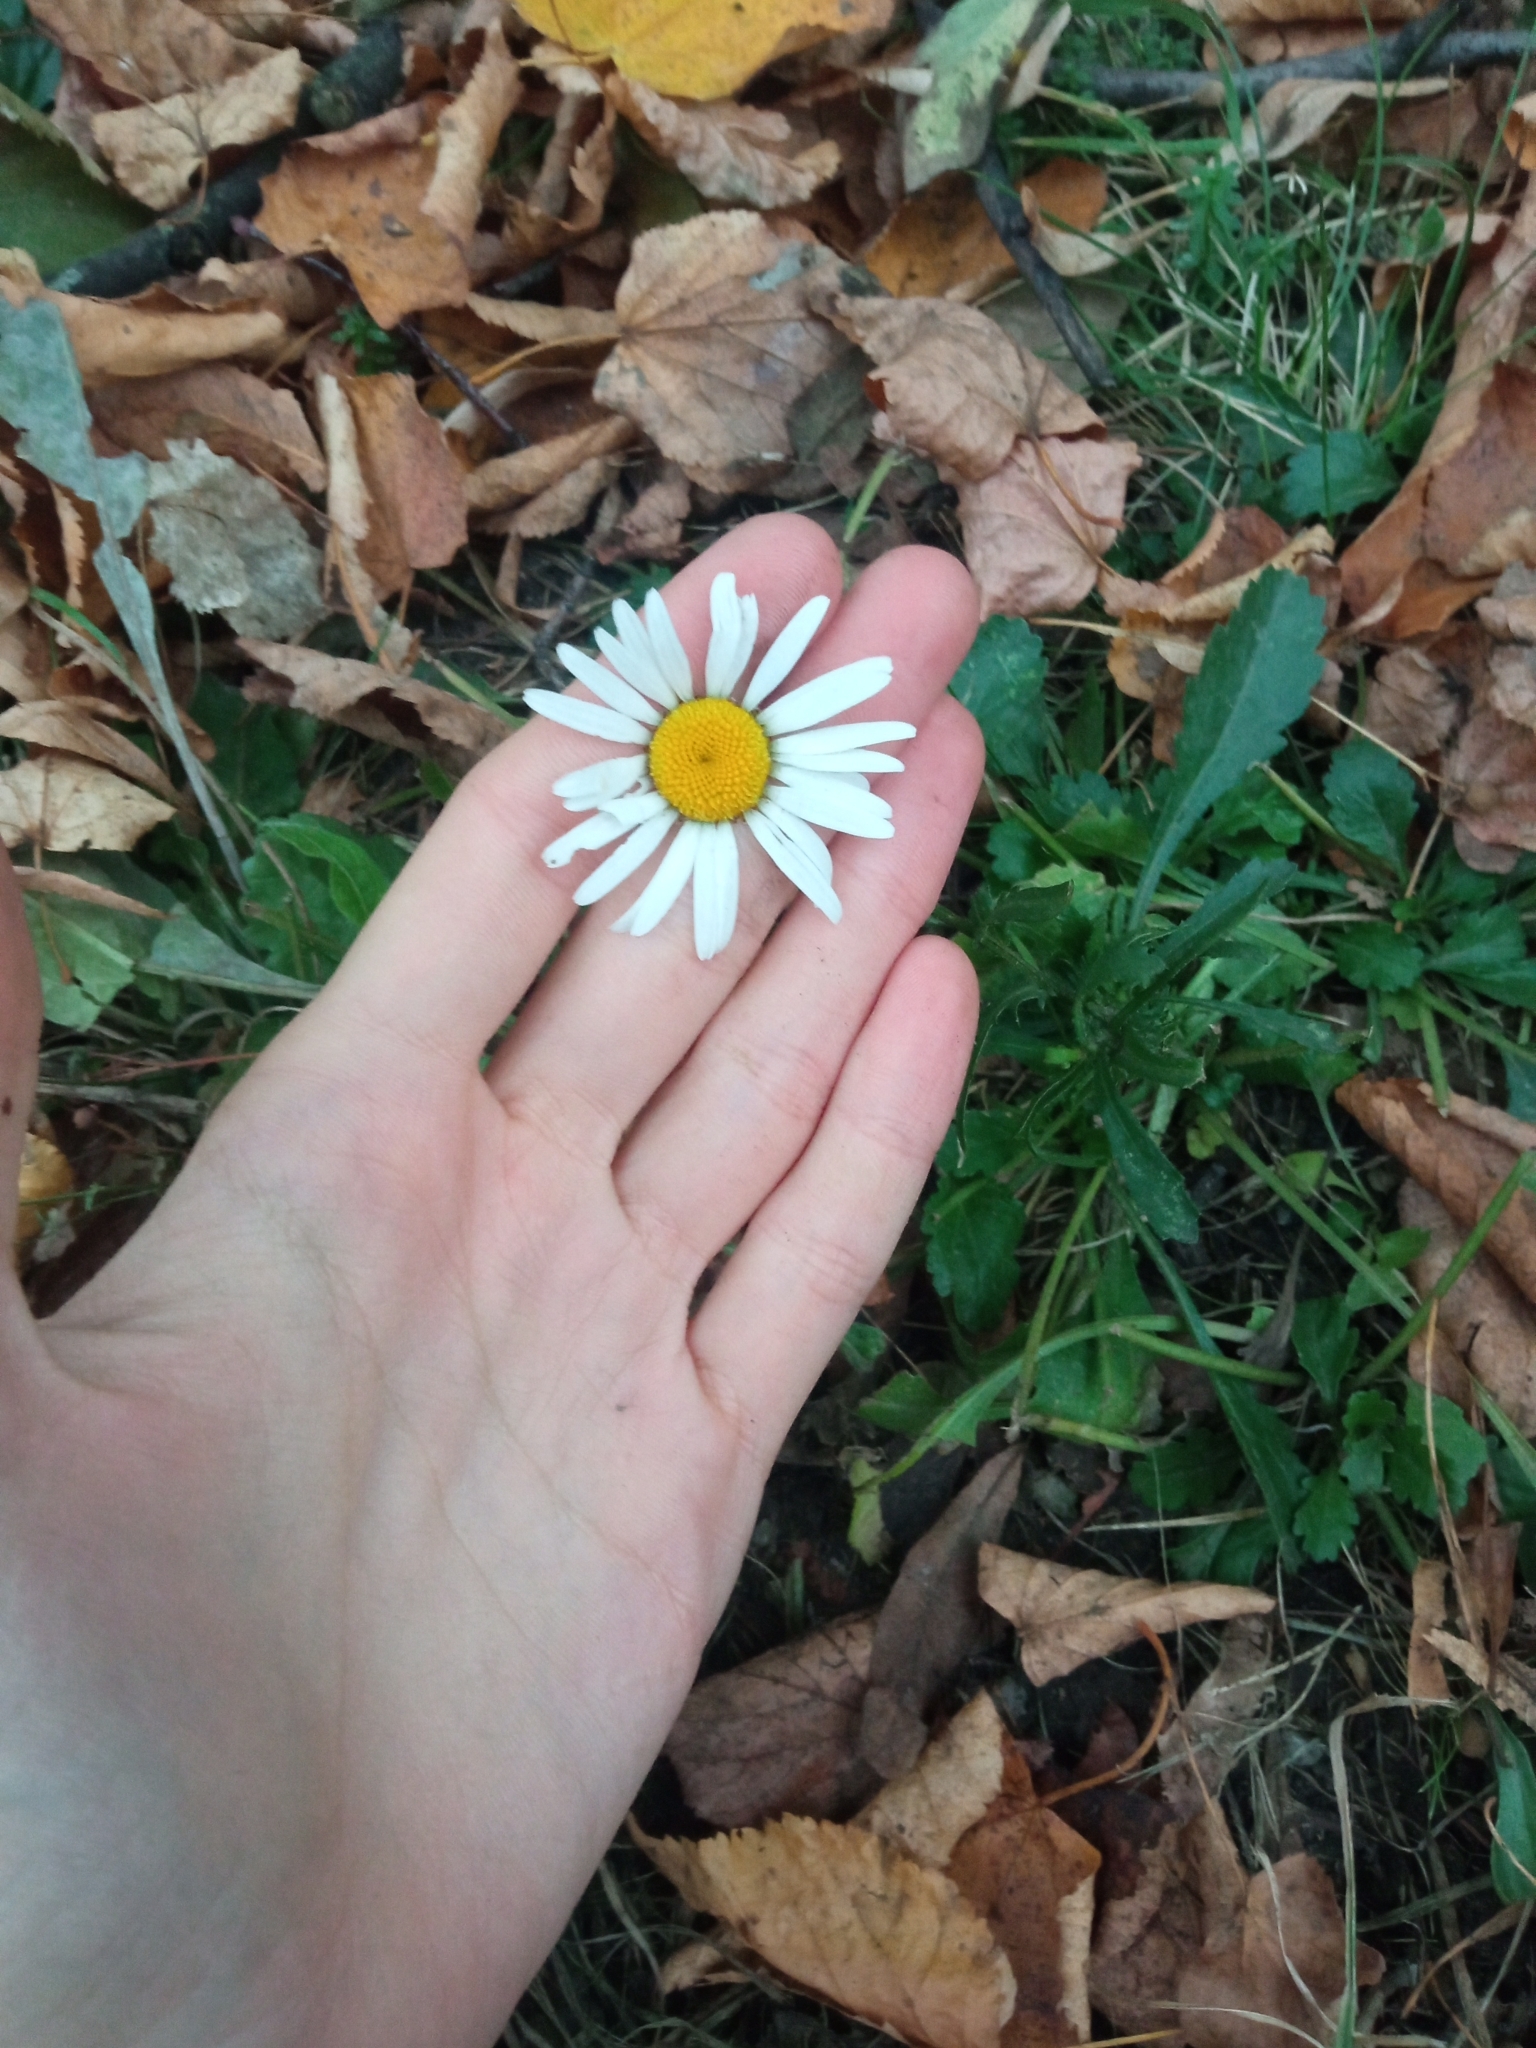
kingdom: Plantae
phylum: Tracheophyta
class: Magnoliopsida
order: Asterales
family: Asteraceae
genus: Leucanthemum
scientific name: Leucanthemum vulgare
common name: Oxeye daisy
